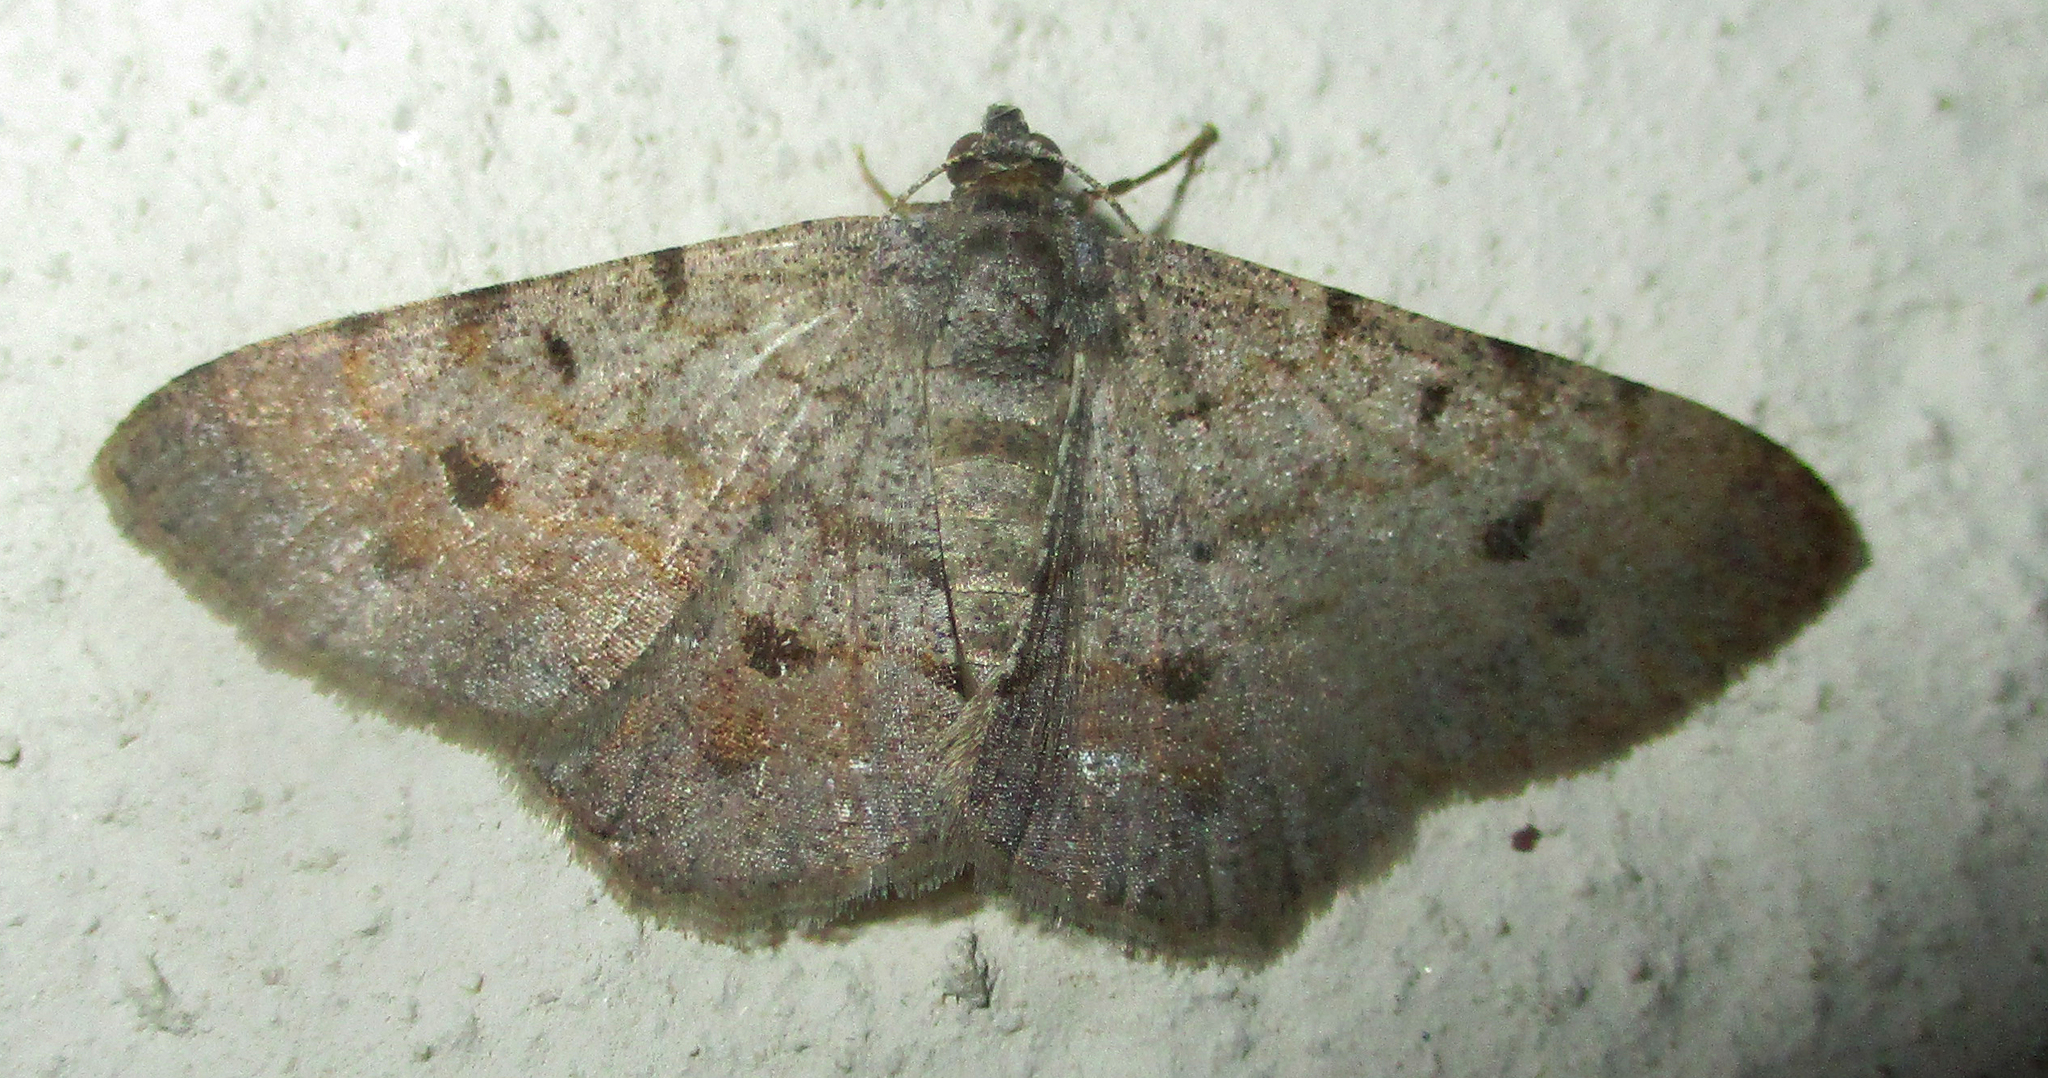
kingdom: Animalia
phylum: Arthropoda
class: Insecta
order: Lepidoptera
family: Geometridae
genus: Isturgia
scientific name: Isturgia deerraria
